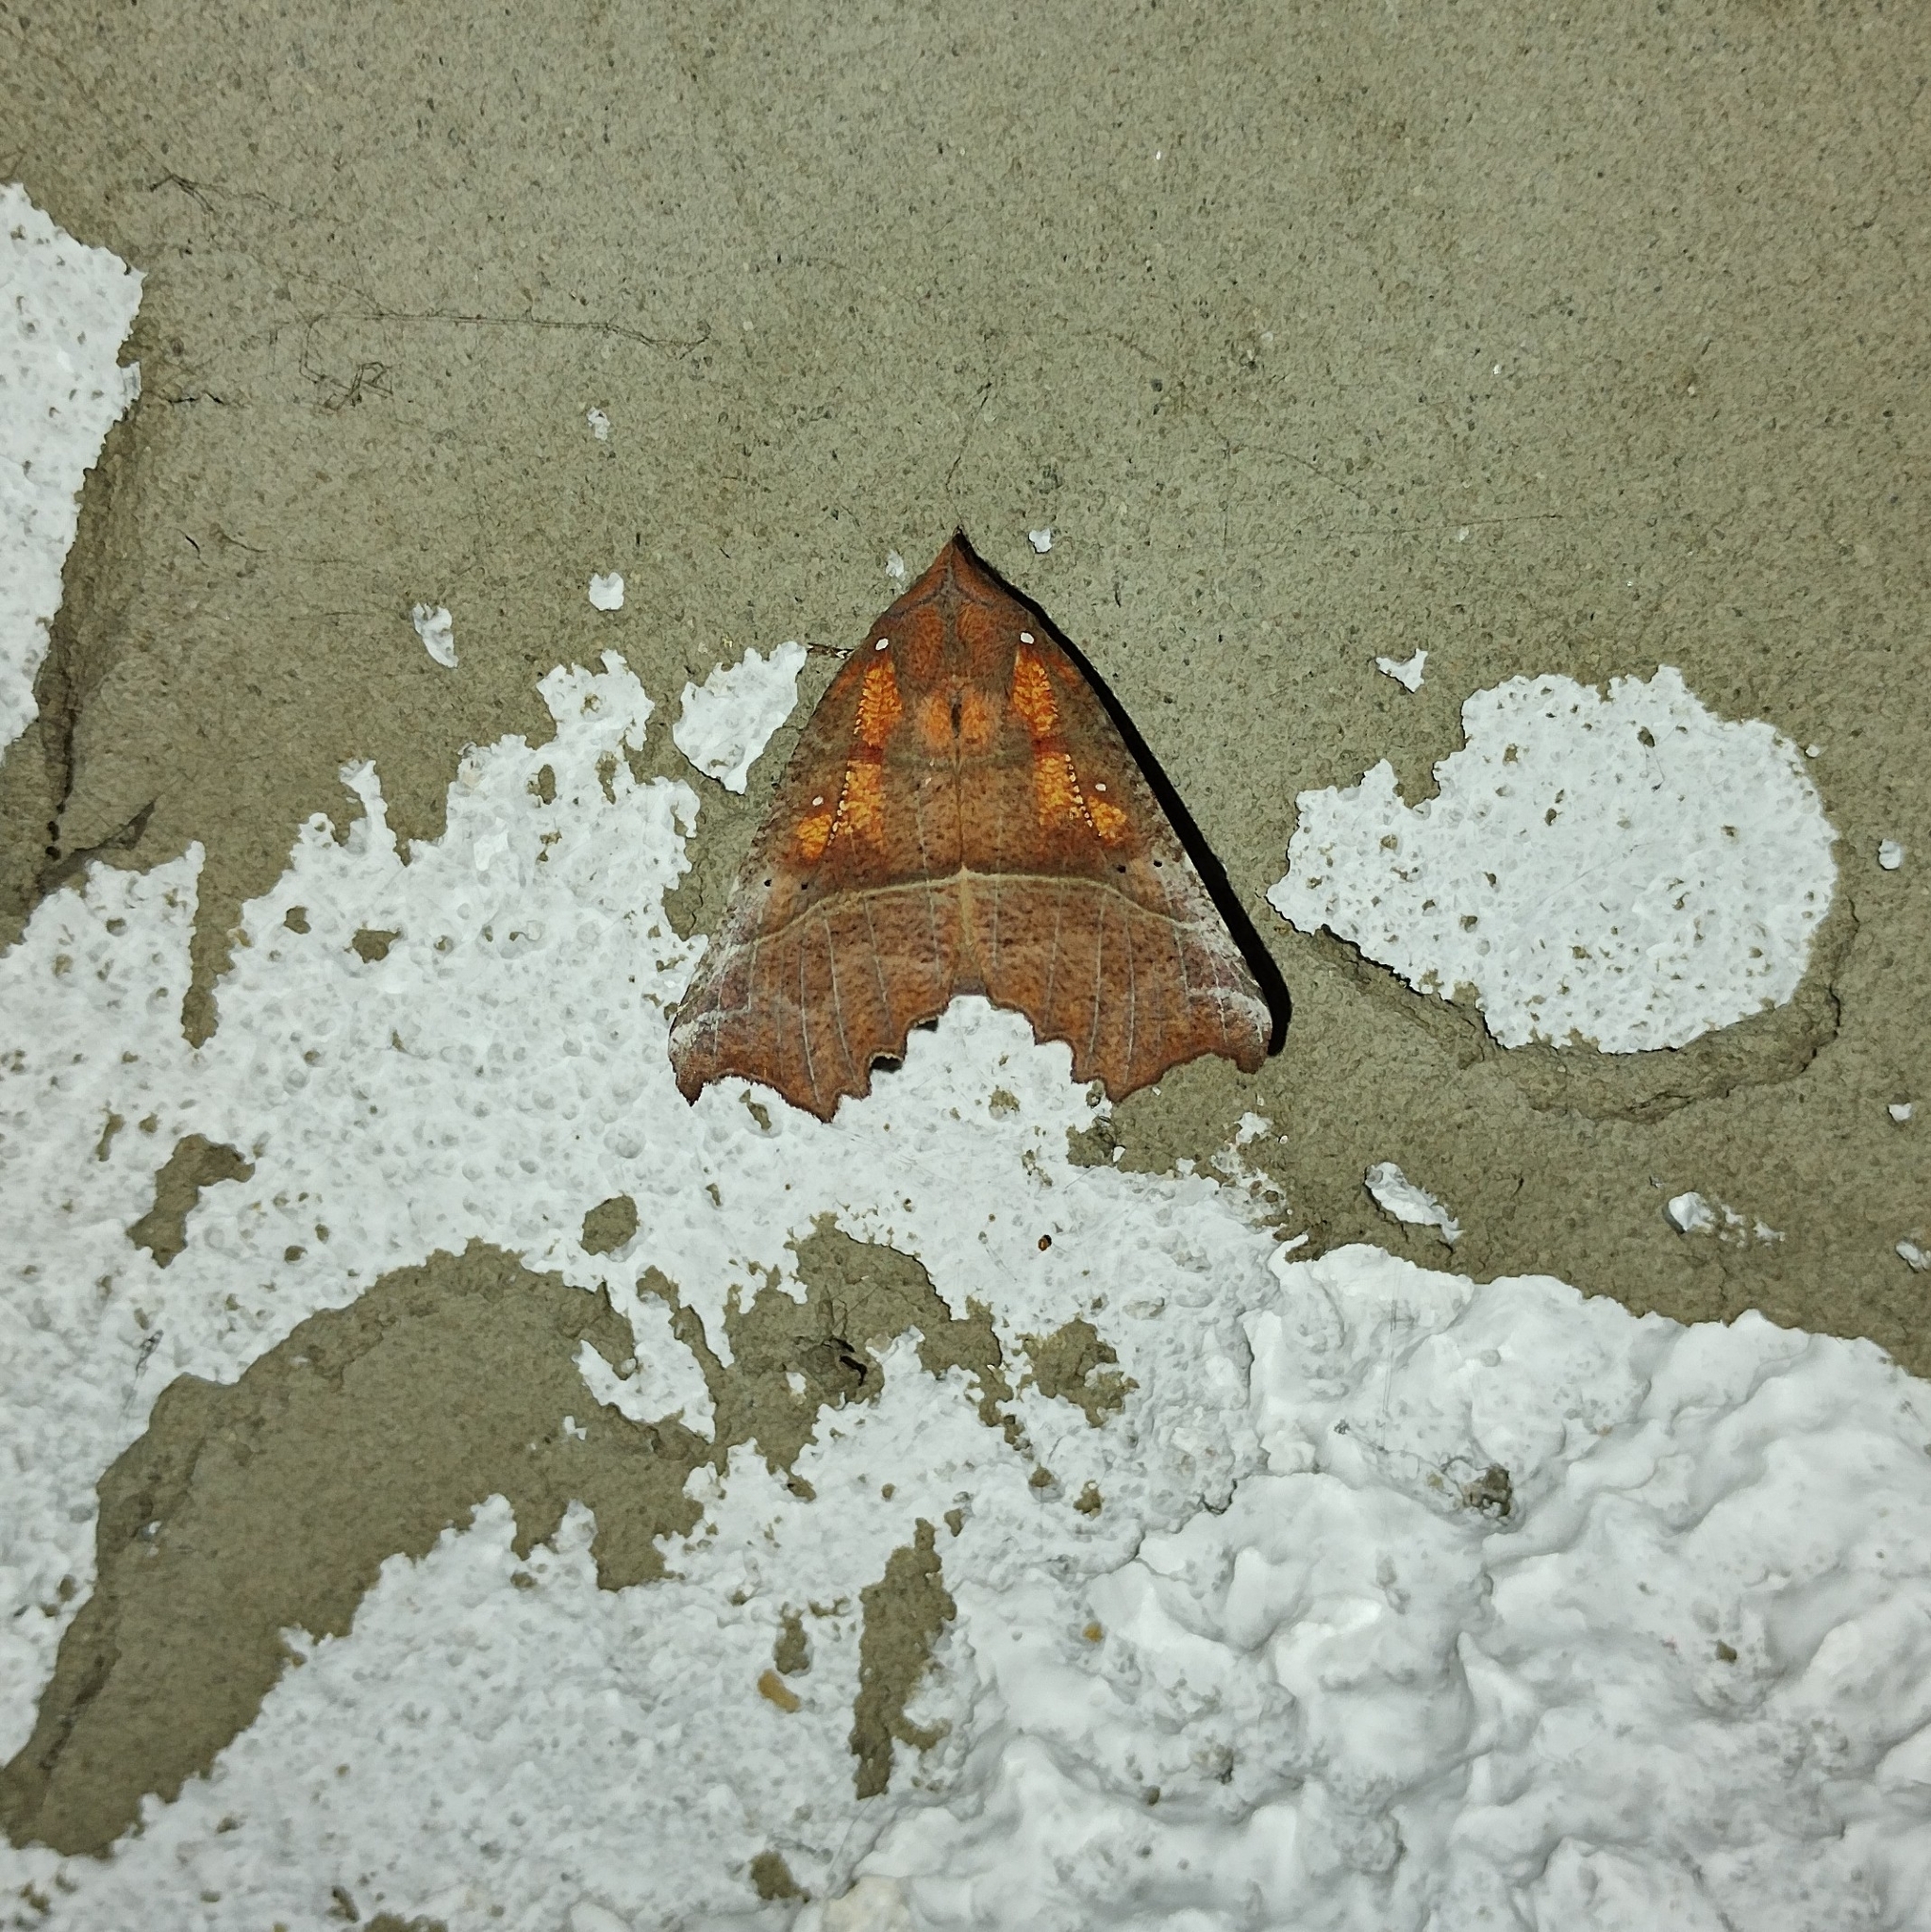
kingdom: Animalia
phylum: Arthropoda
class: Insecta
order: Lepidoptera
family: Erebidae
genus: Scoliopteryx
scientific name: Scoliopteryx libatrix
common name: Herald
